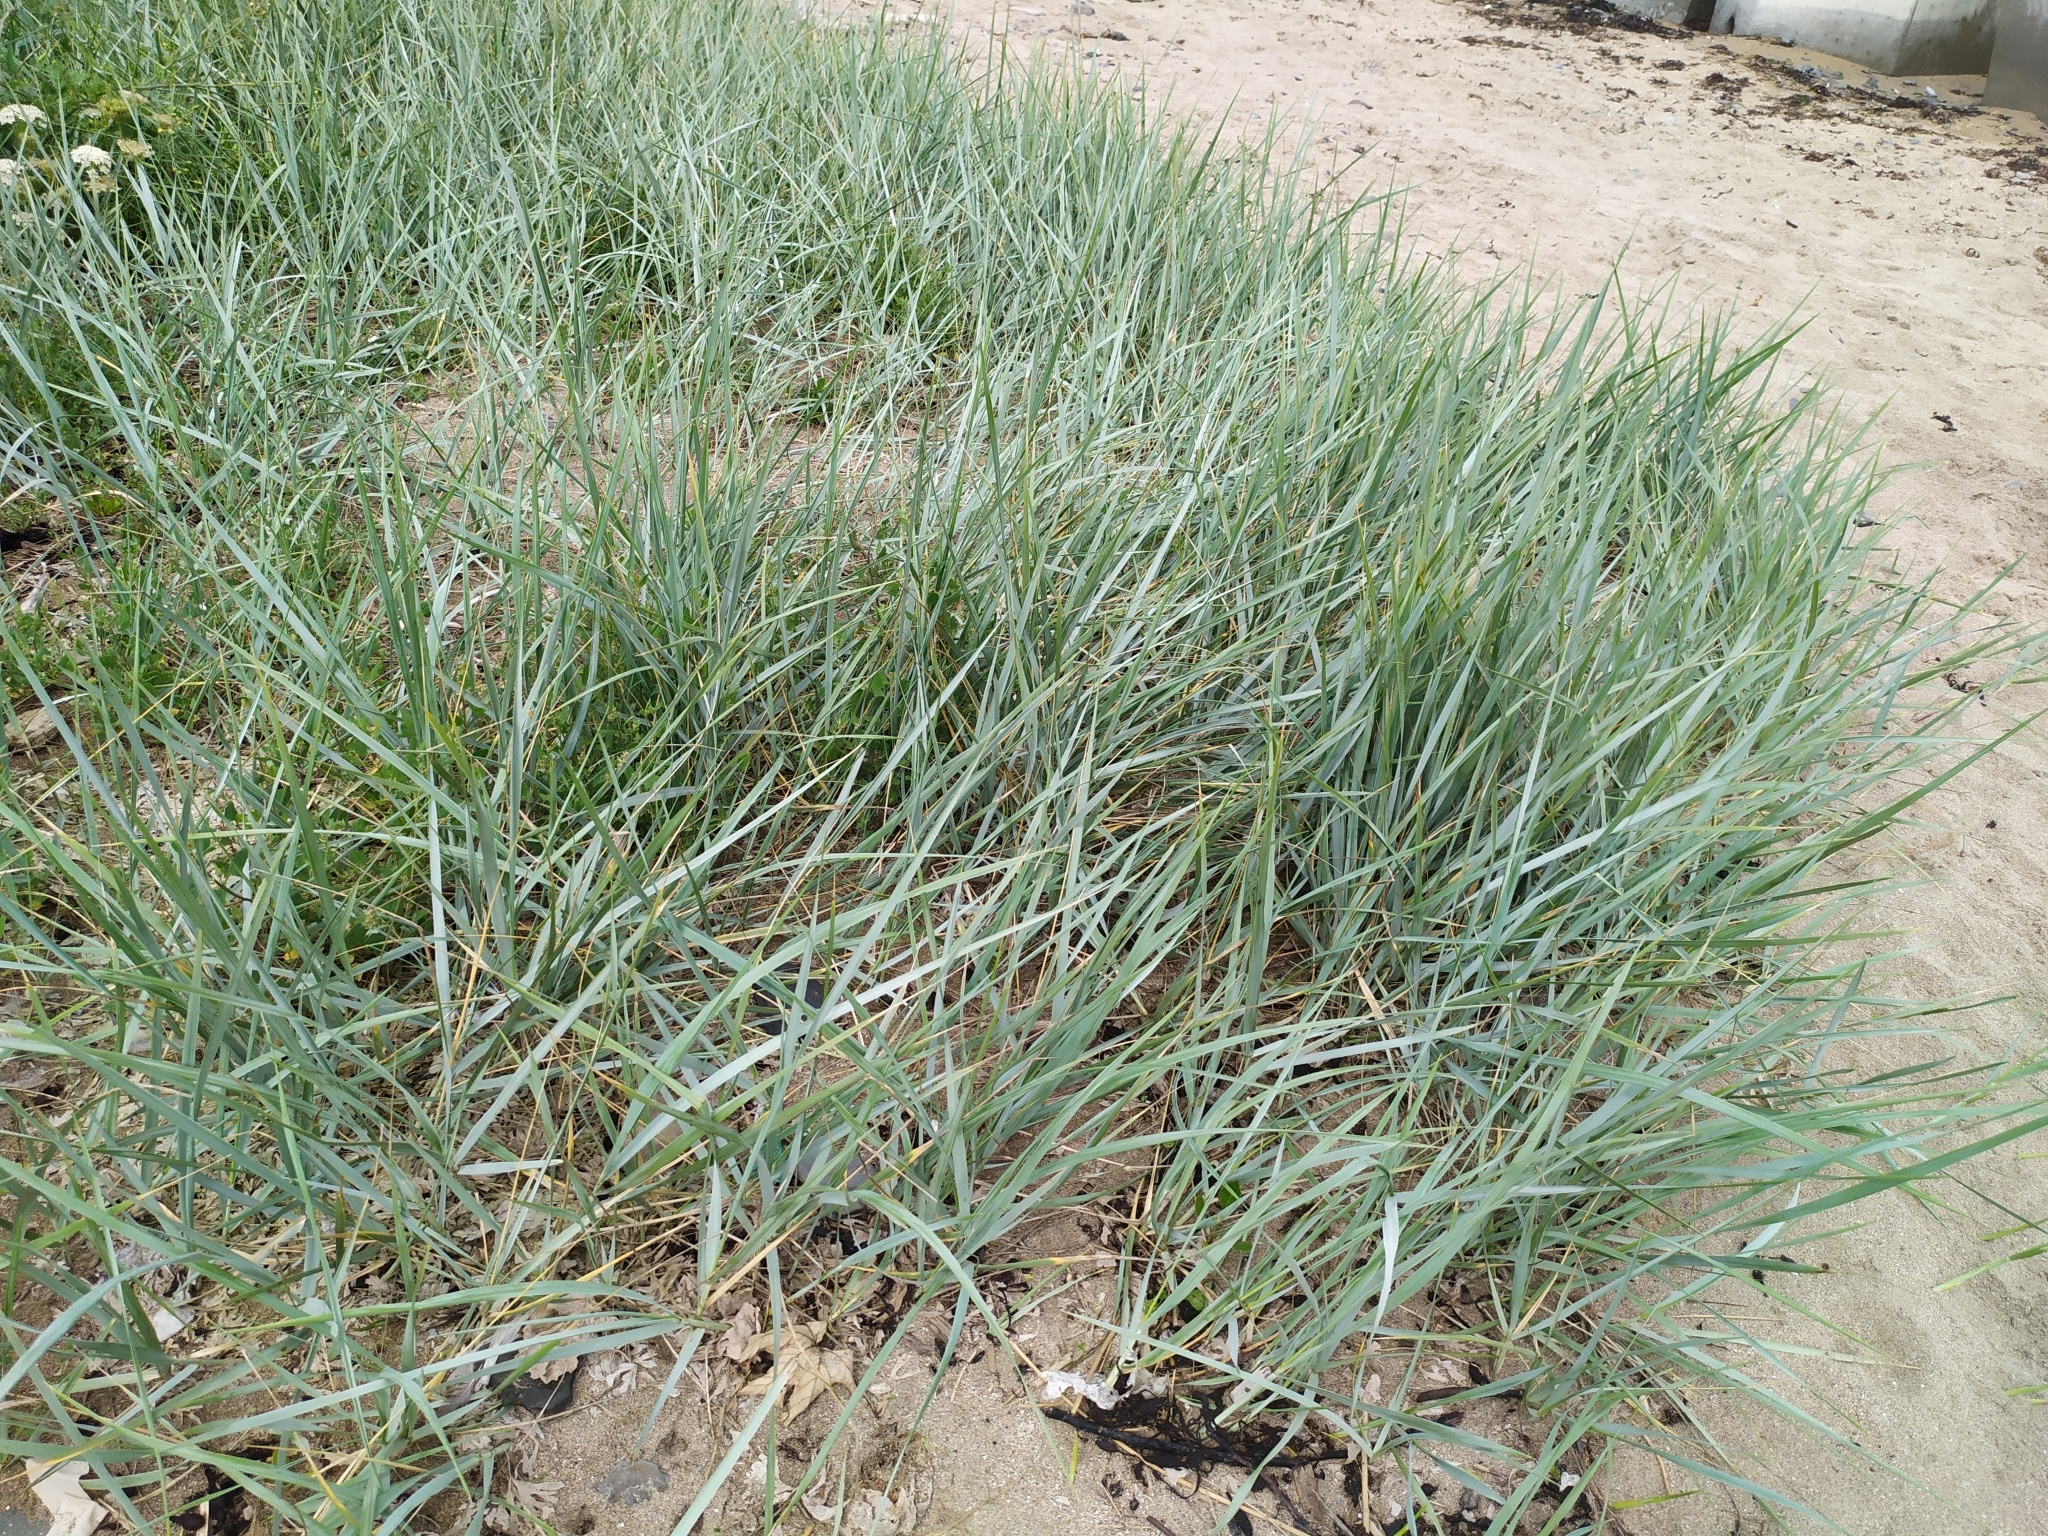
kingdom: Plantae
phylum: Tracheophyta
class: Liliopsida
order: Poales
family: Poaceae
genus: Leymus
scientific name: Leymus arenarius
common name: Lyme-grass
